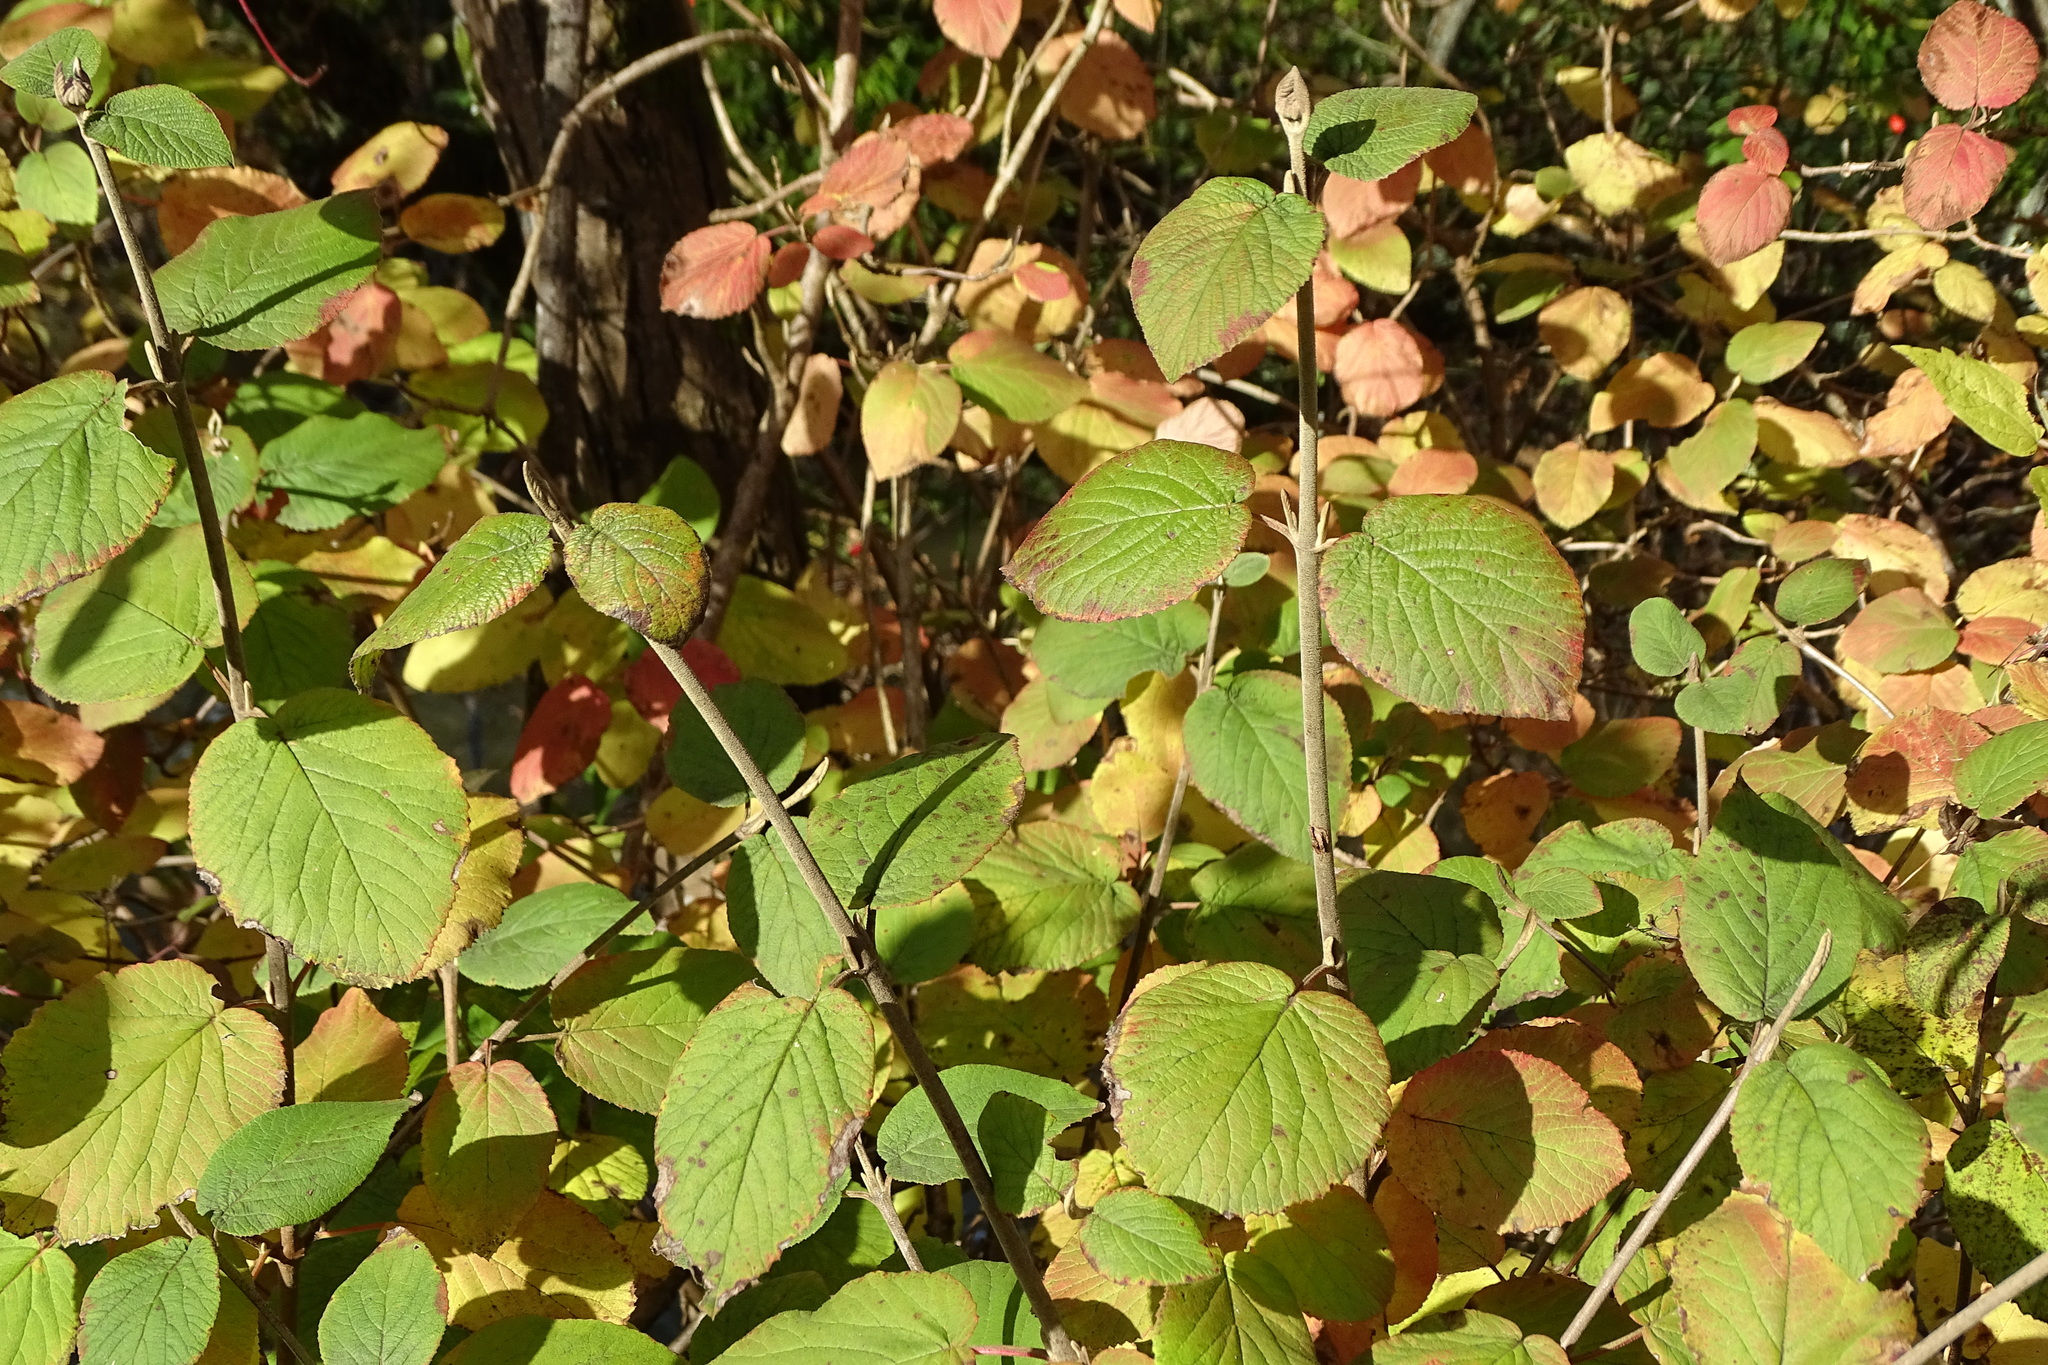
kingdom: Plantae
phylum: Tracheophyta
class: Magnoliopsida
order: Dipsacales
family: Viburnaceae
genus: Viburnum
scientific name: Viburnum lantana
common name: Wayfaring tree
